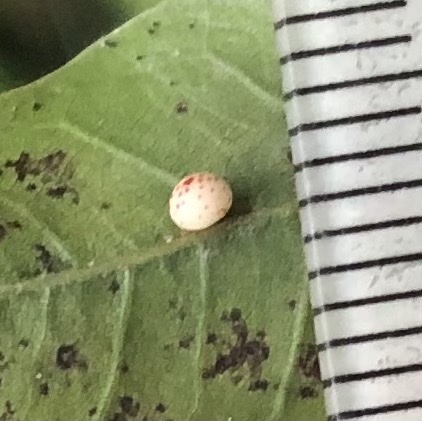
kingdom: Animalia
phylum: Arthropoda
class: Insecta
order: Hymenoptera
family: Cynipidae
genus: Zopheroteras
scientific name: Zopheroteras
